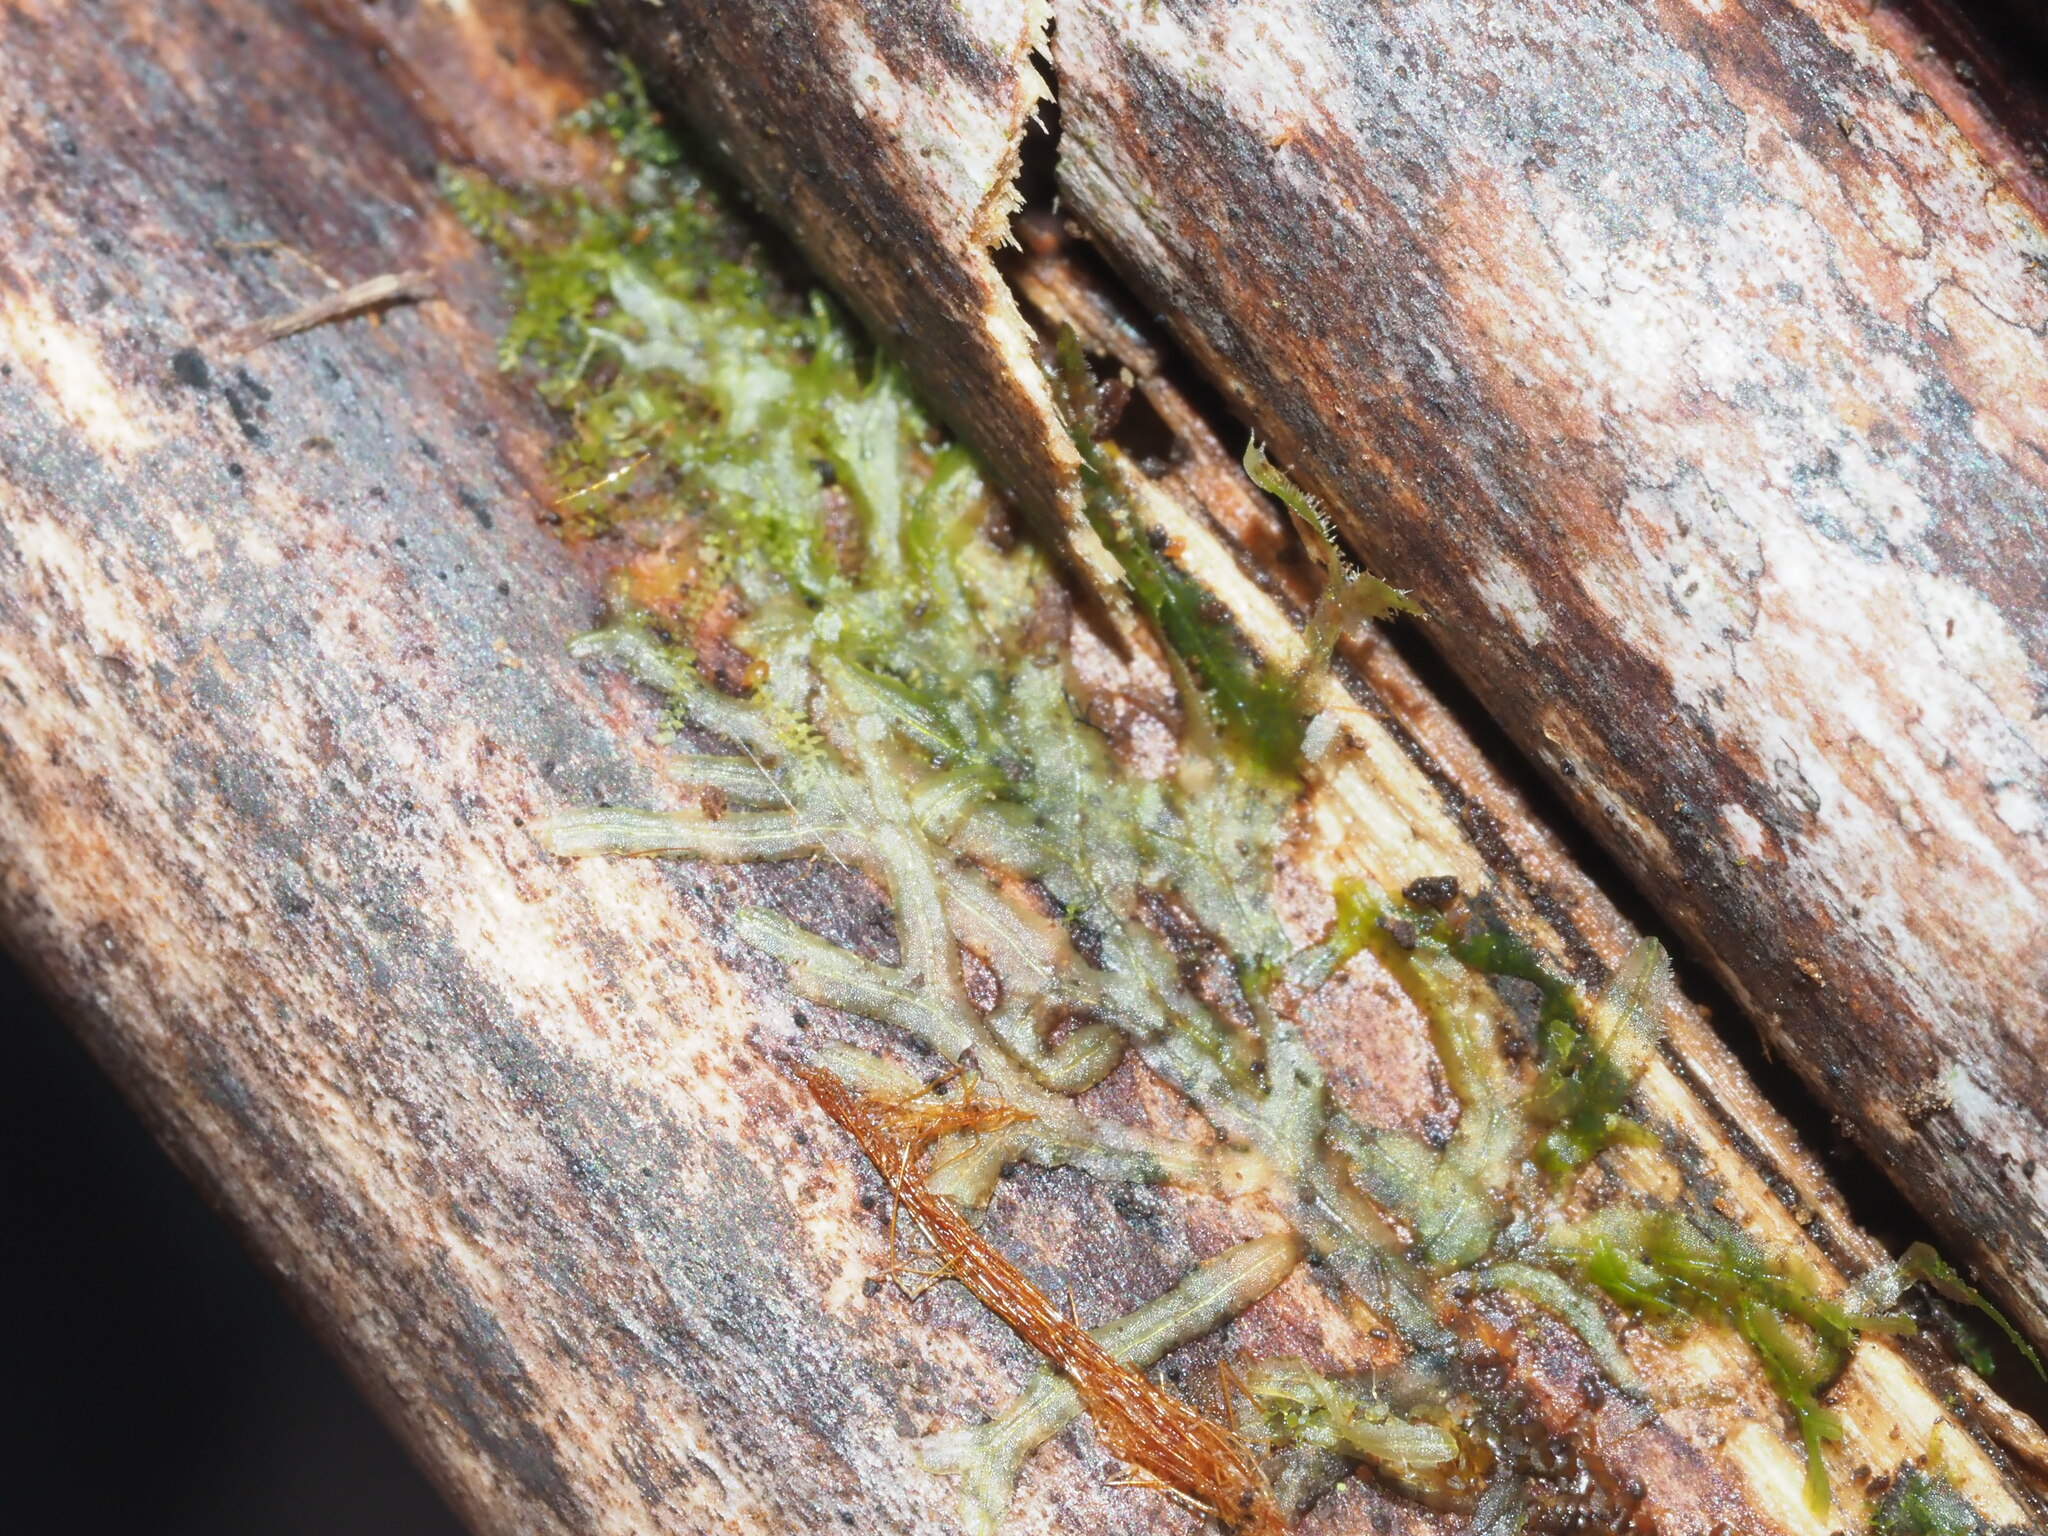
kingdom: Plantae
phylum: Marchantiophyta
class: Jungermanniopsida
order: Metzgeriales
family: Metzgeriaceae
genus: Metzgeria
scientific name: Metzgeria furcata
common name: Forked veilwort
